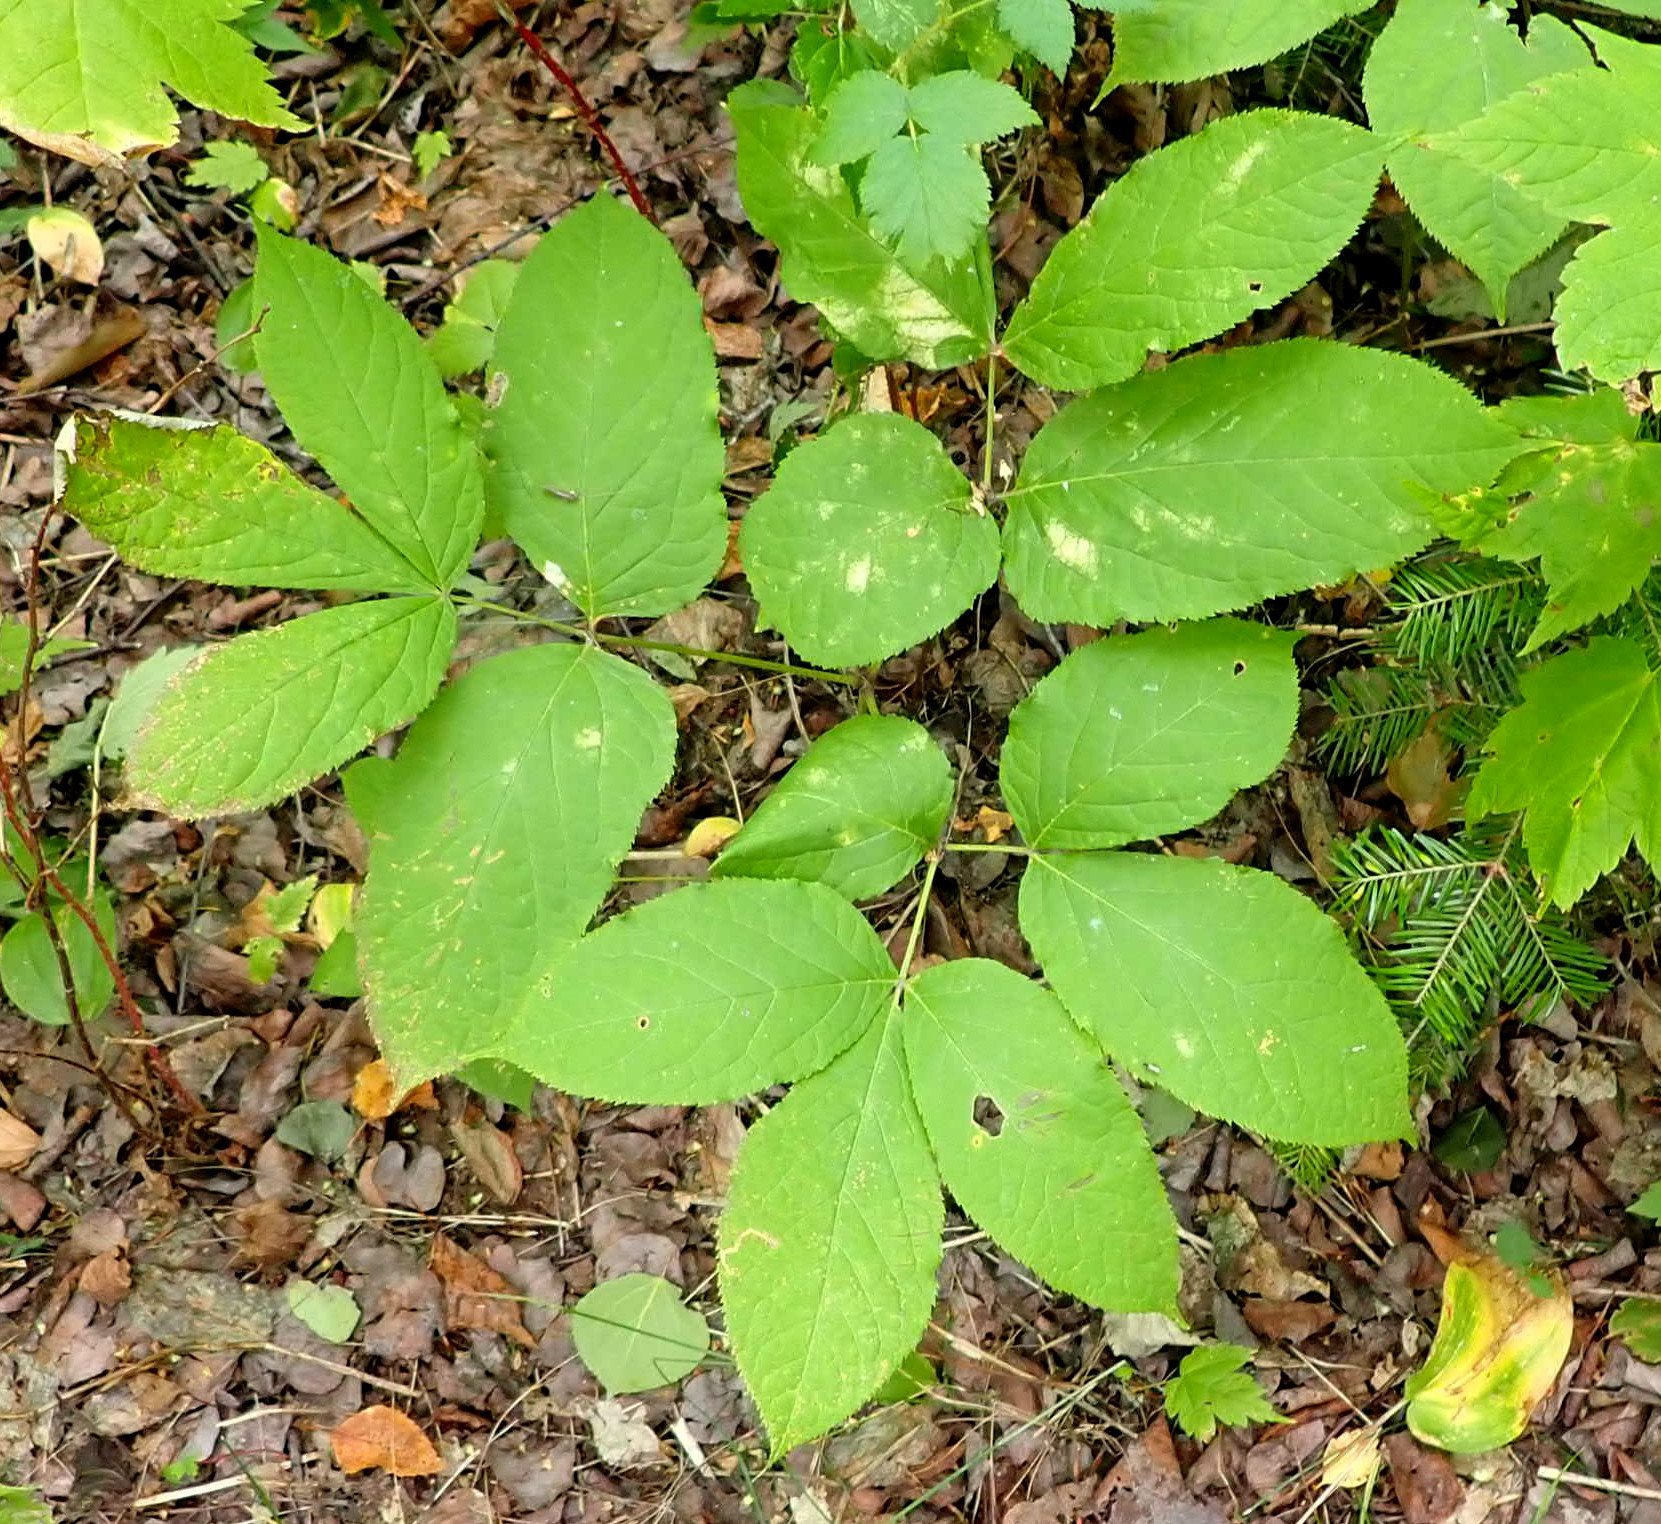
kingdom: Plantae
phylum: Tracheophyta
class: Magnoliopsida
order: Apiales
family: Araliaceae
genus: Aralia
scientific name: Aralia nudicaulis
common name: Wild sarsaparilla
